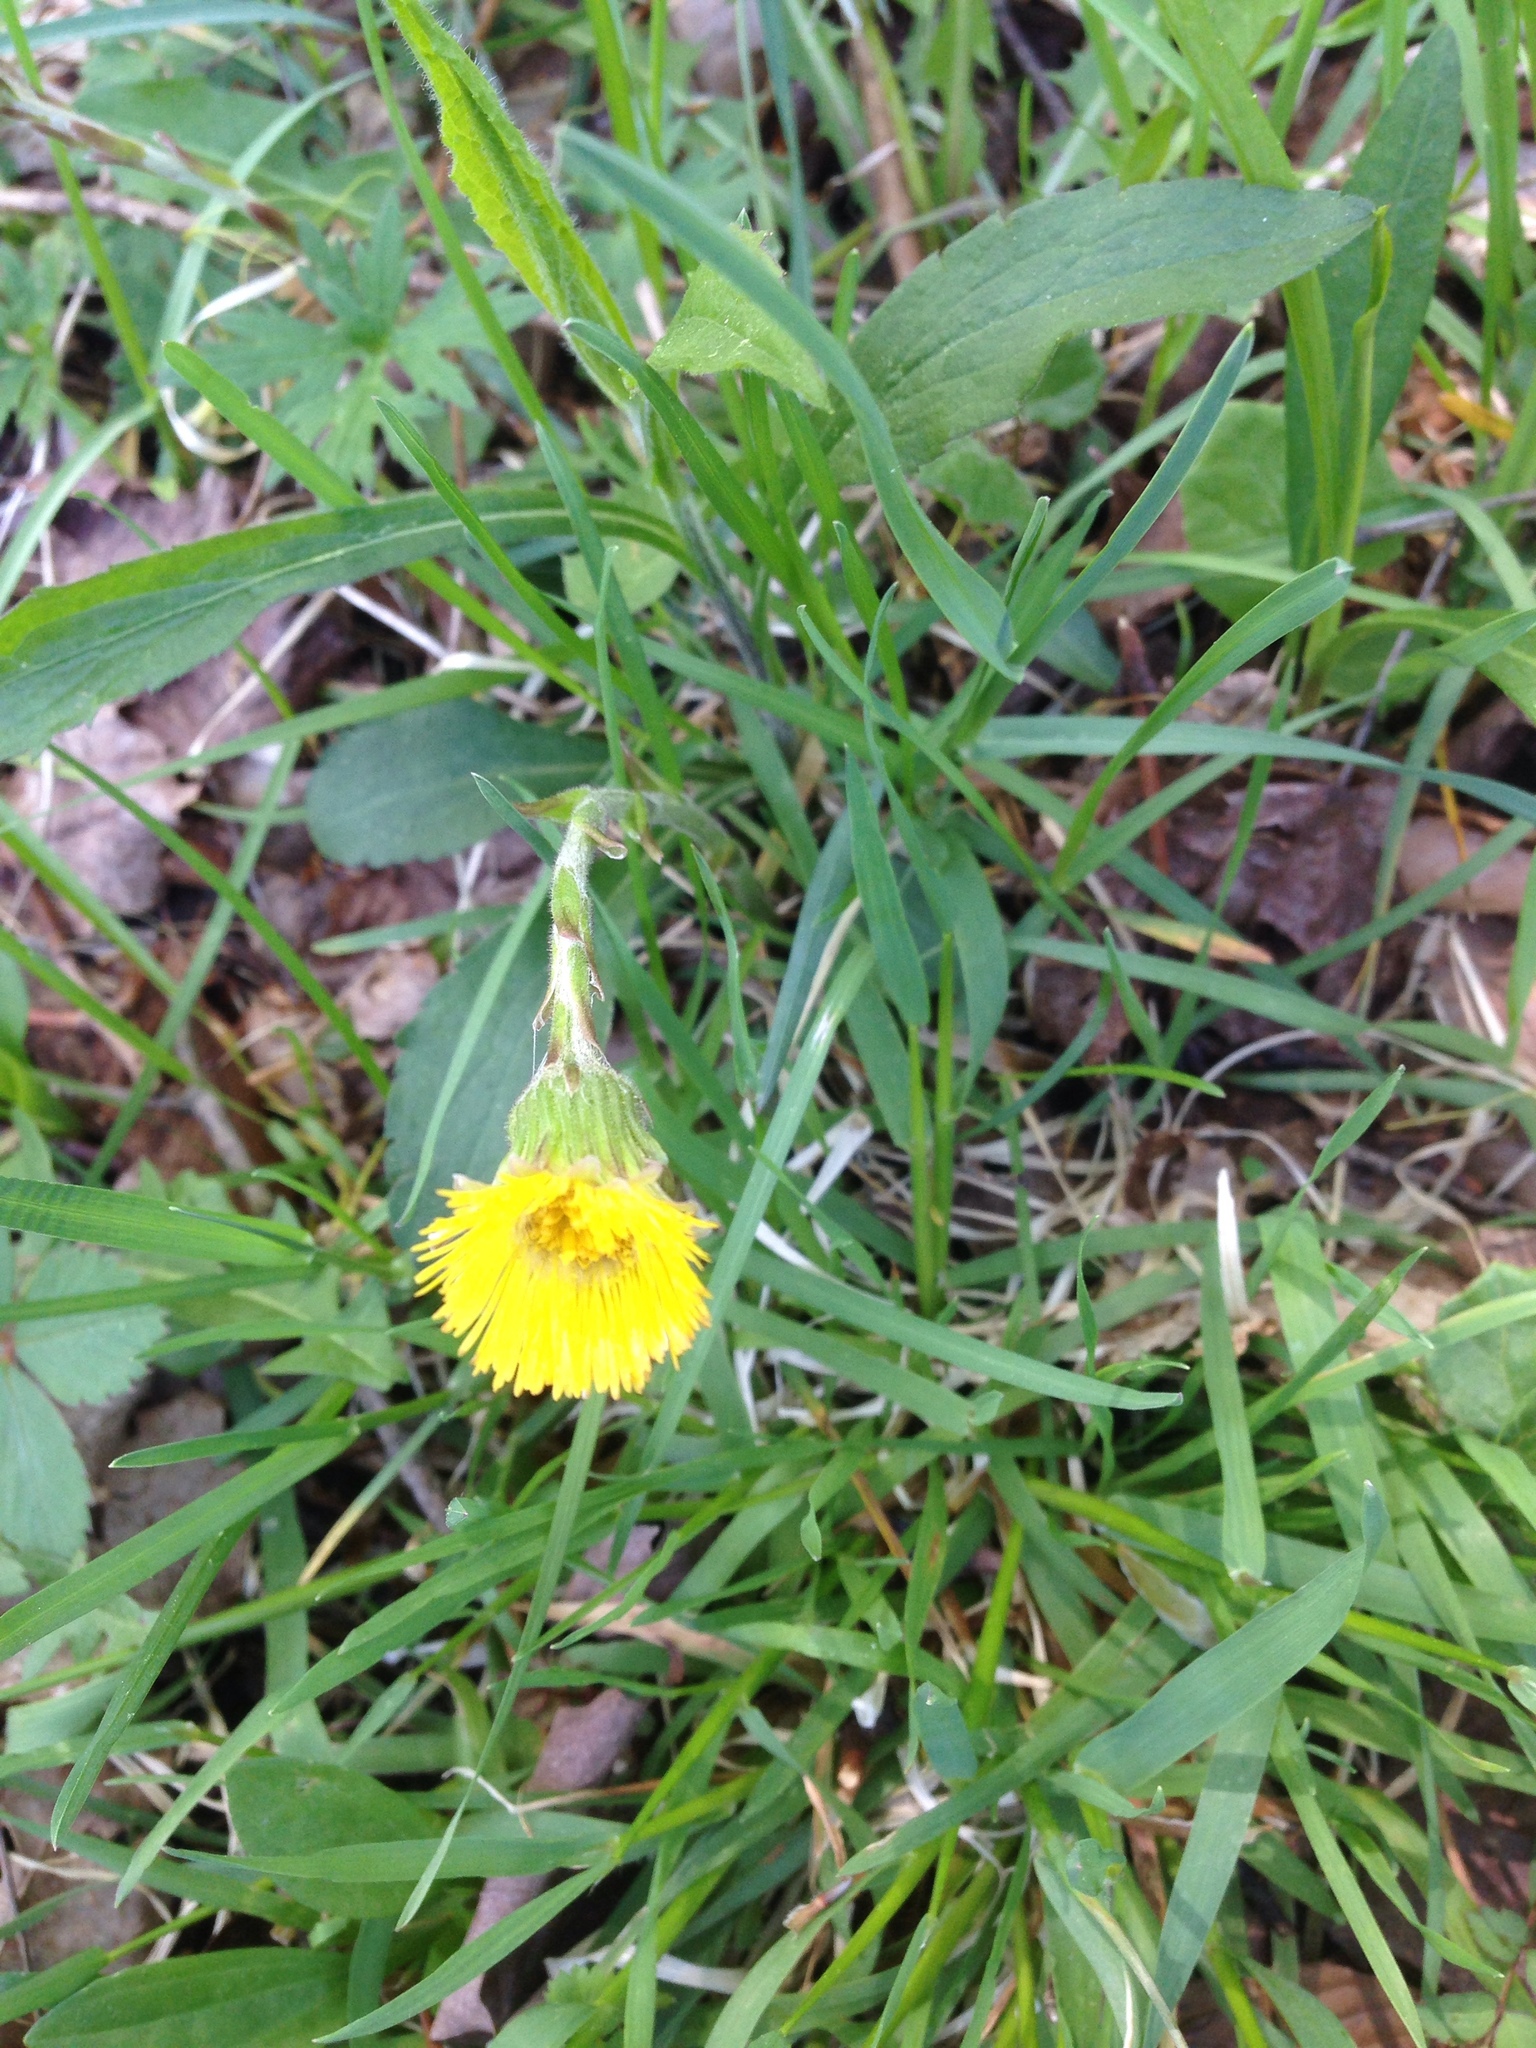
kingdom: Plantae
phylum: Tracheophyta
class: Magnoliopsida
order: Asterales
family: Asteraceae
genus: Tussilago
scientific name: Tussilago farfara
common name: Coltsfoot
